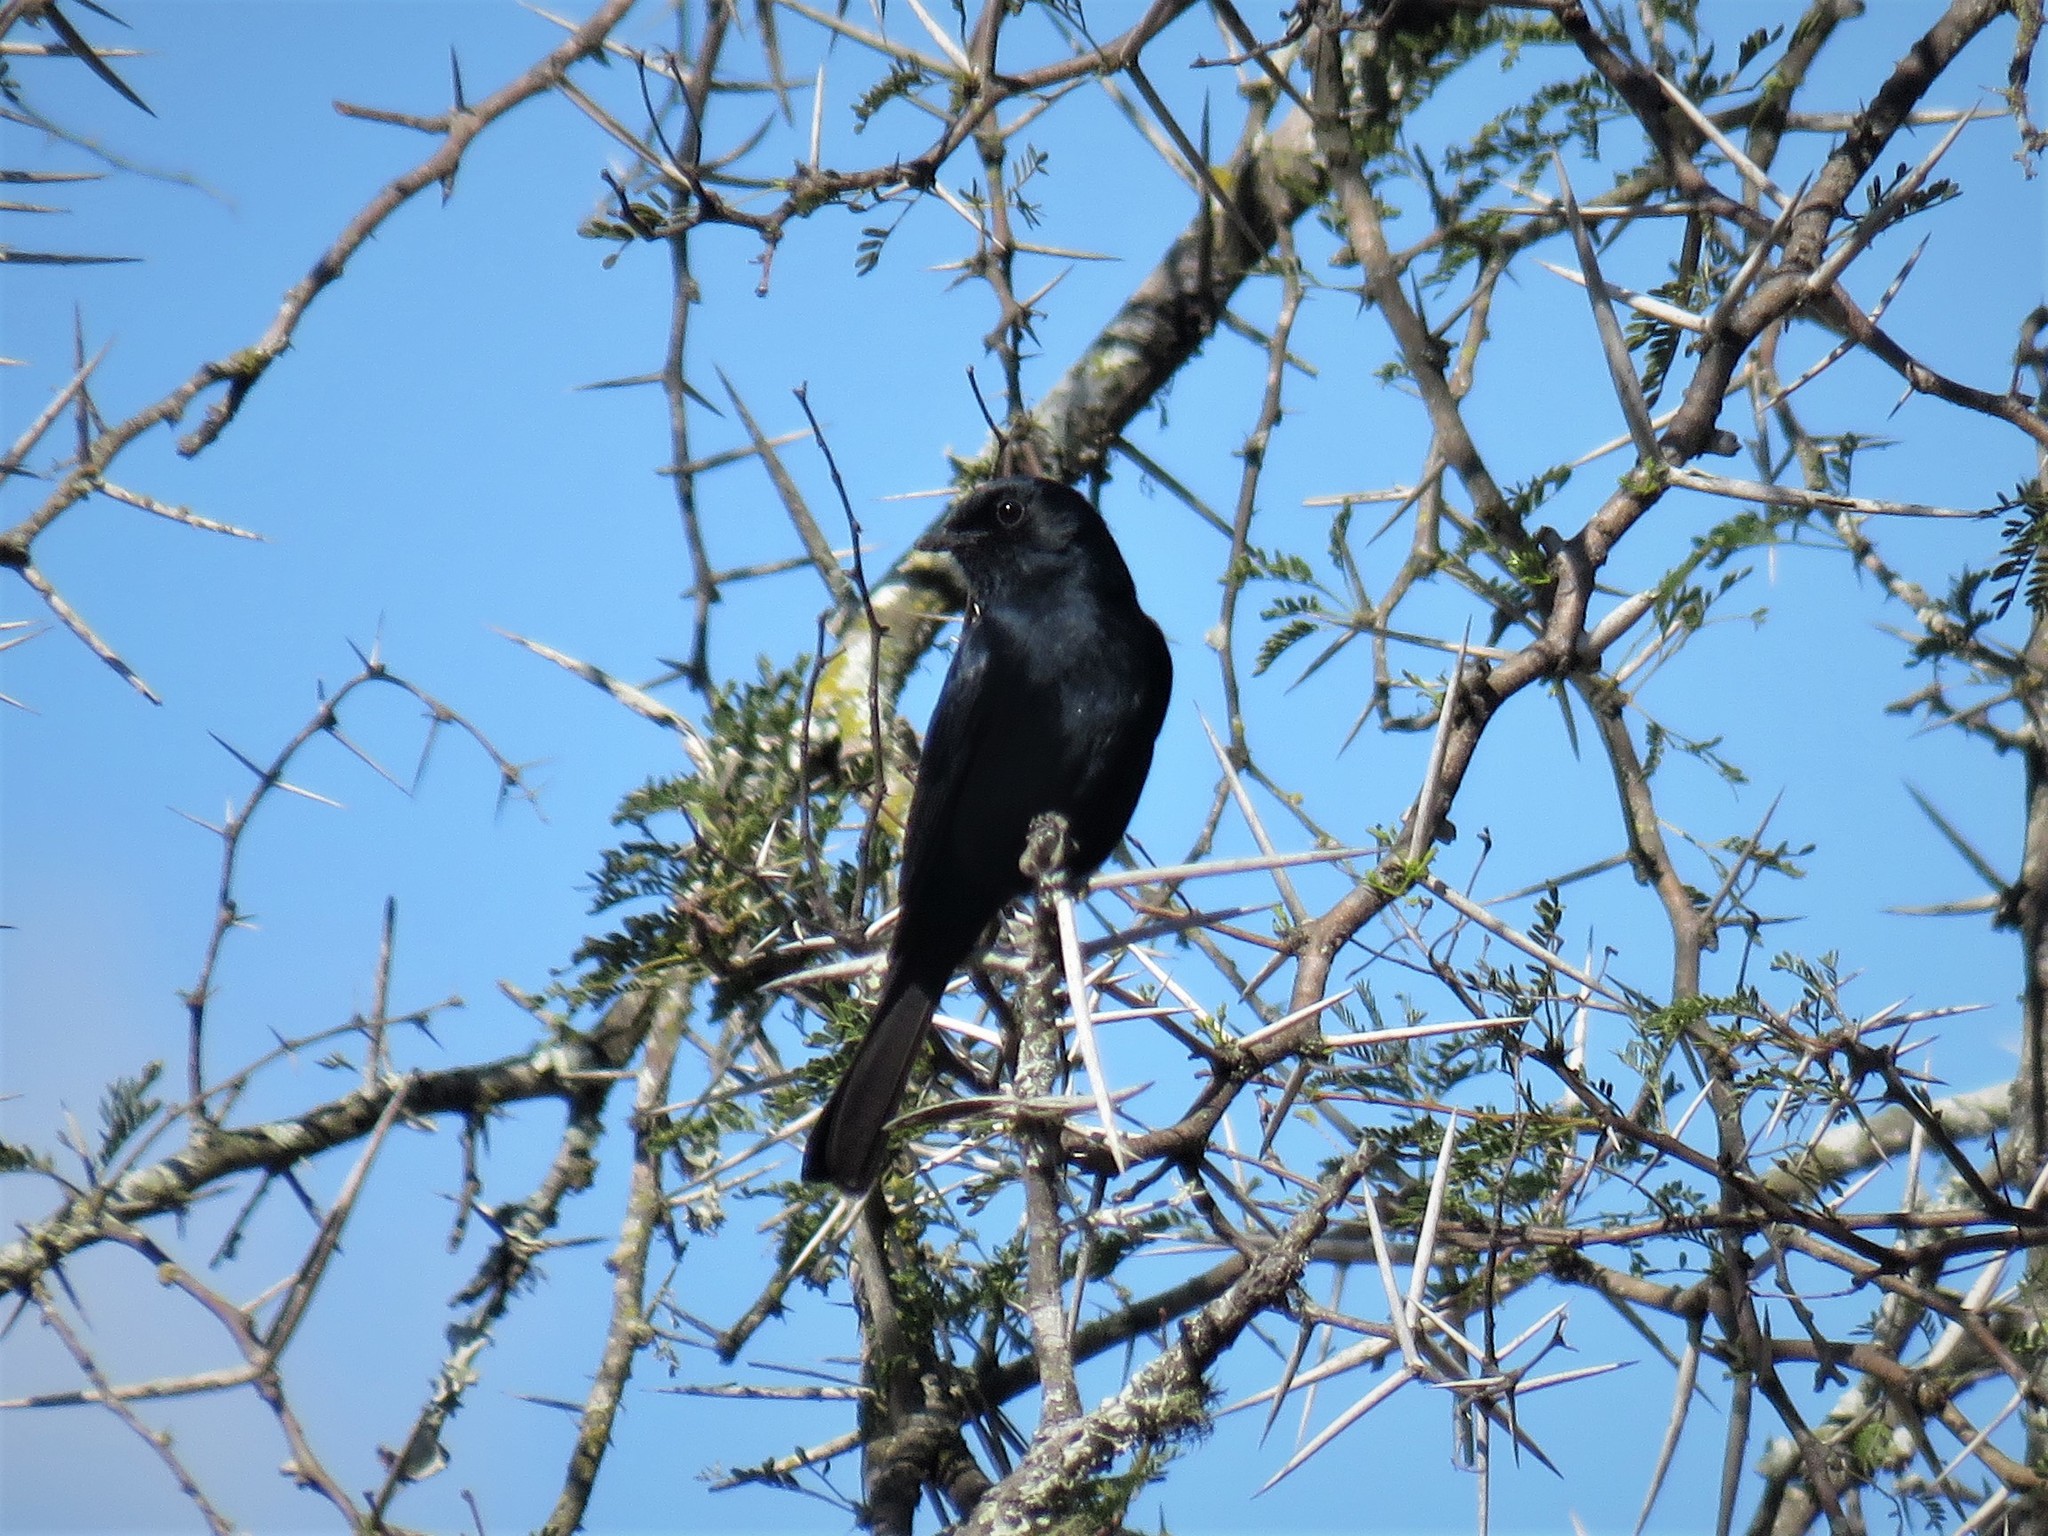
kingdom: Animalia
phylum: Chordata
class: Aves
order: Passeriformes
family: Muscicapidae
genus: Melaenornis
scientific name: Melaenornis pammelaina
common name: Southern black flycatcher
